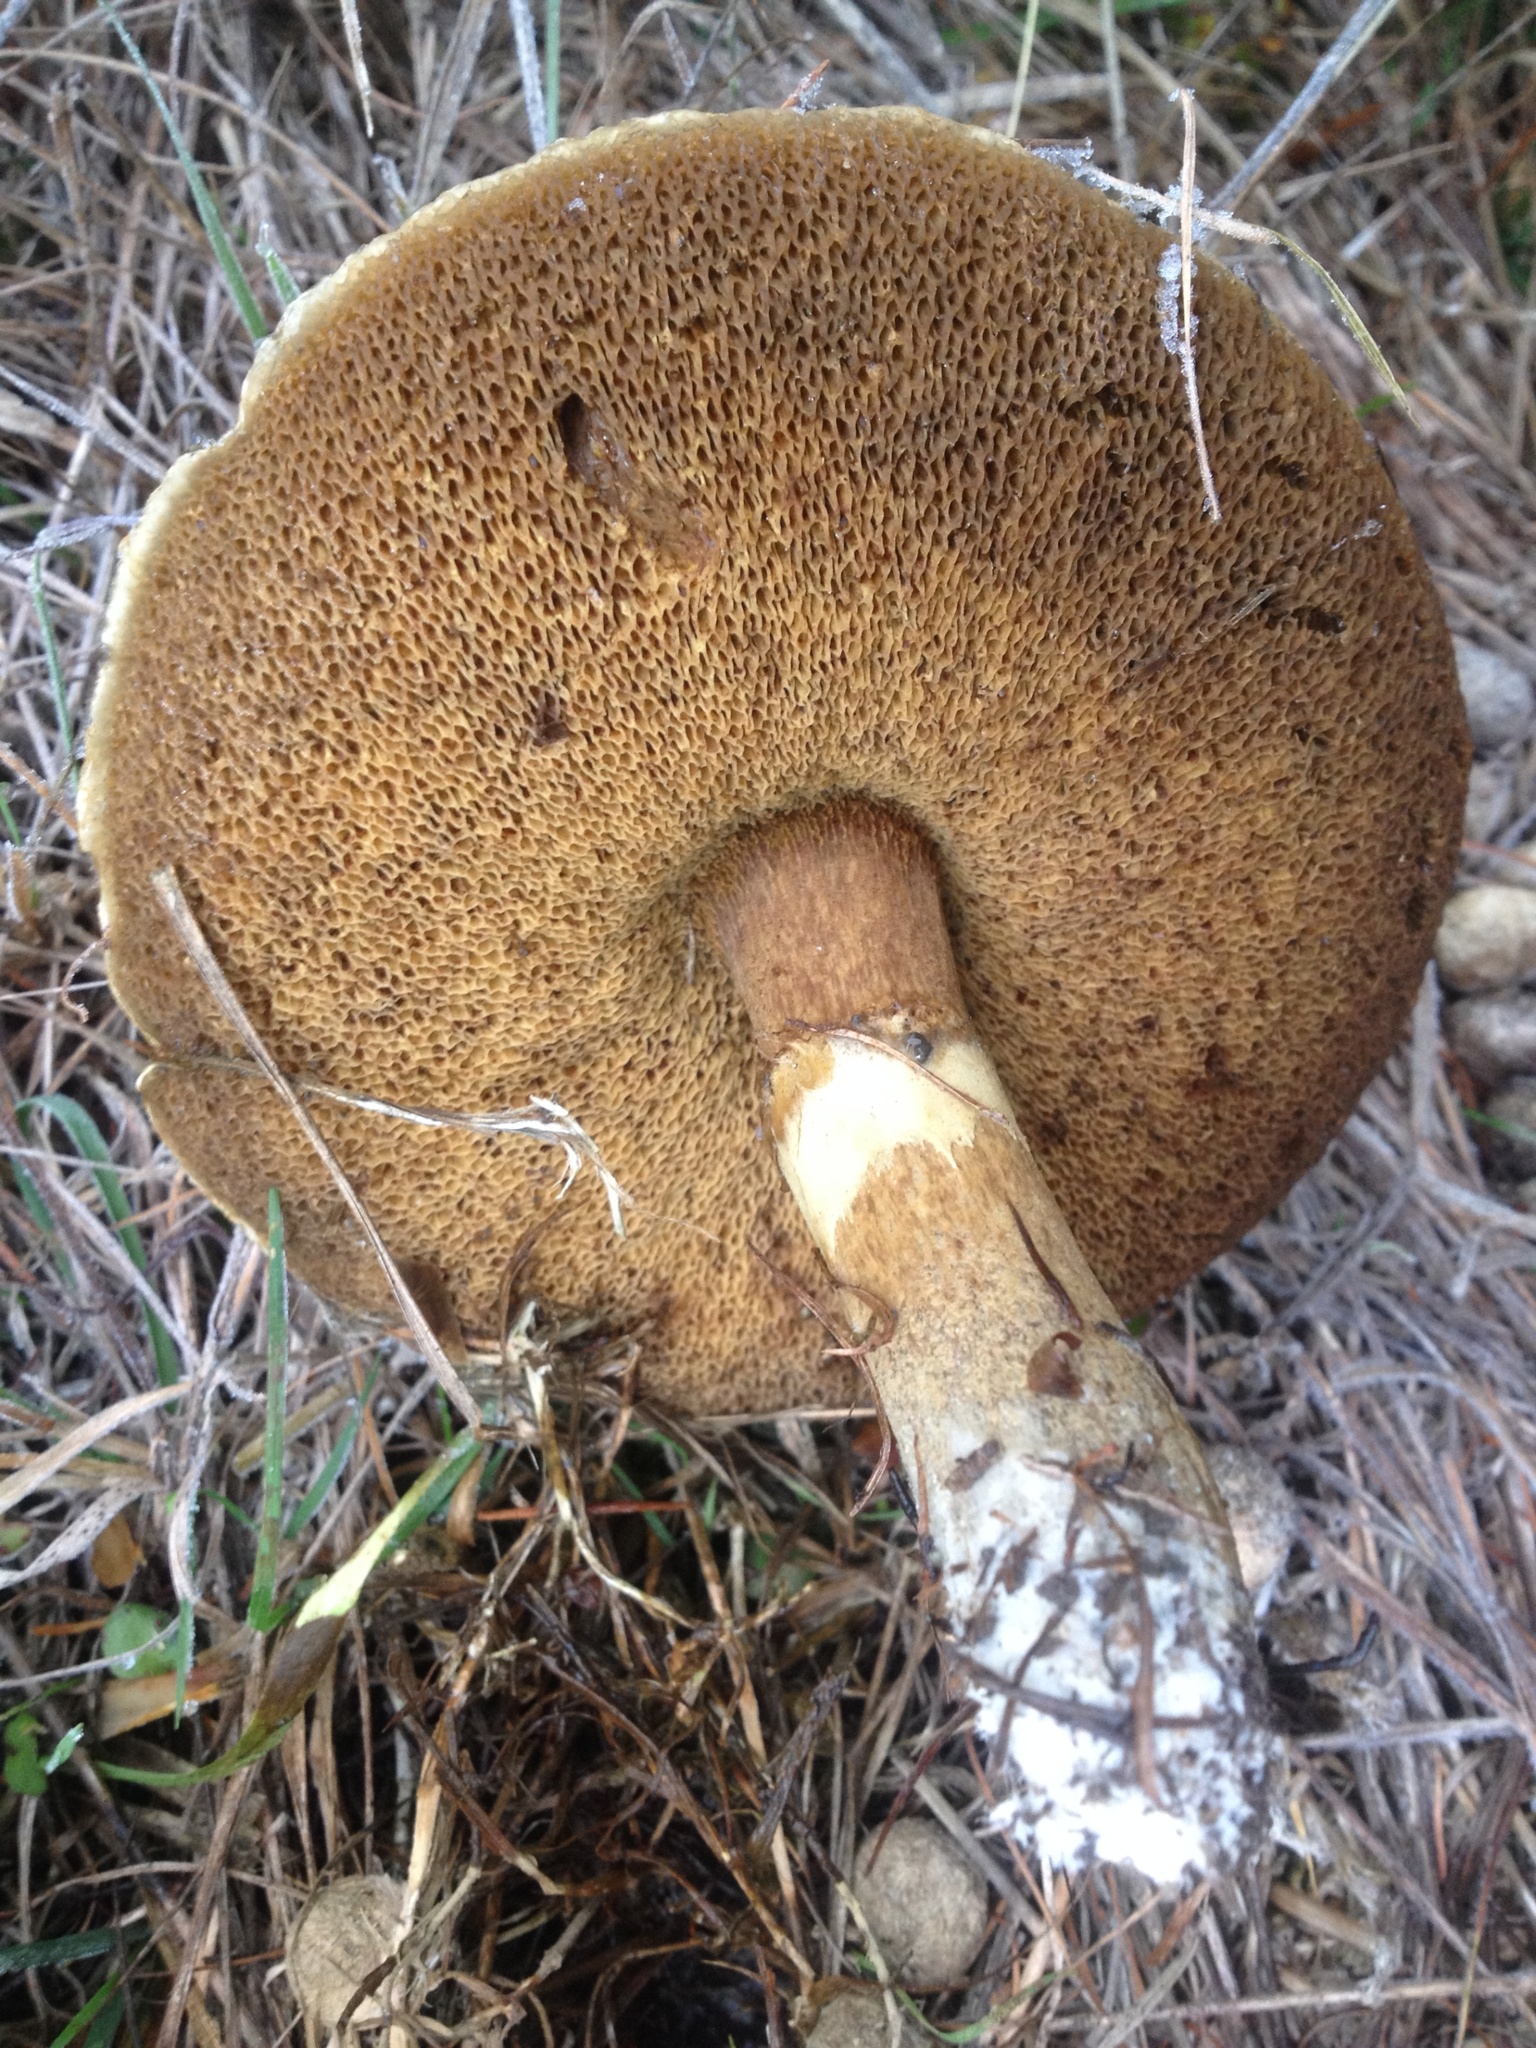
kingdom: Fungi
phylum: Basidiomycota
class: Agaricomycetes
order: Boletales
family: Suillaceae
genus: Suillus
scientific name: Suillus grevillei
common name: Larch bolete
